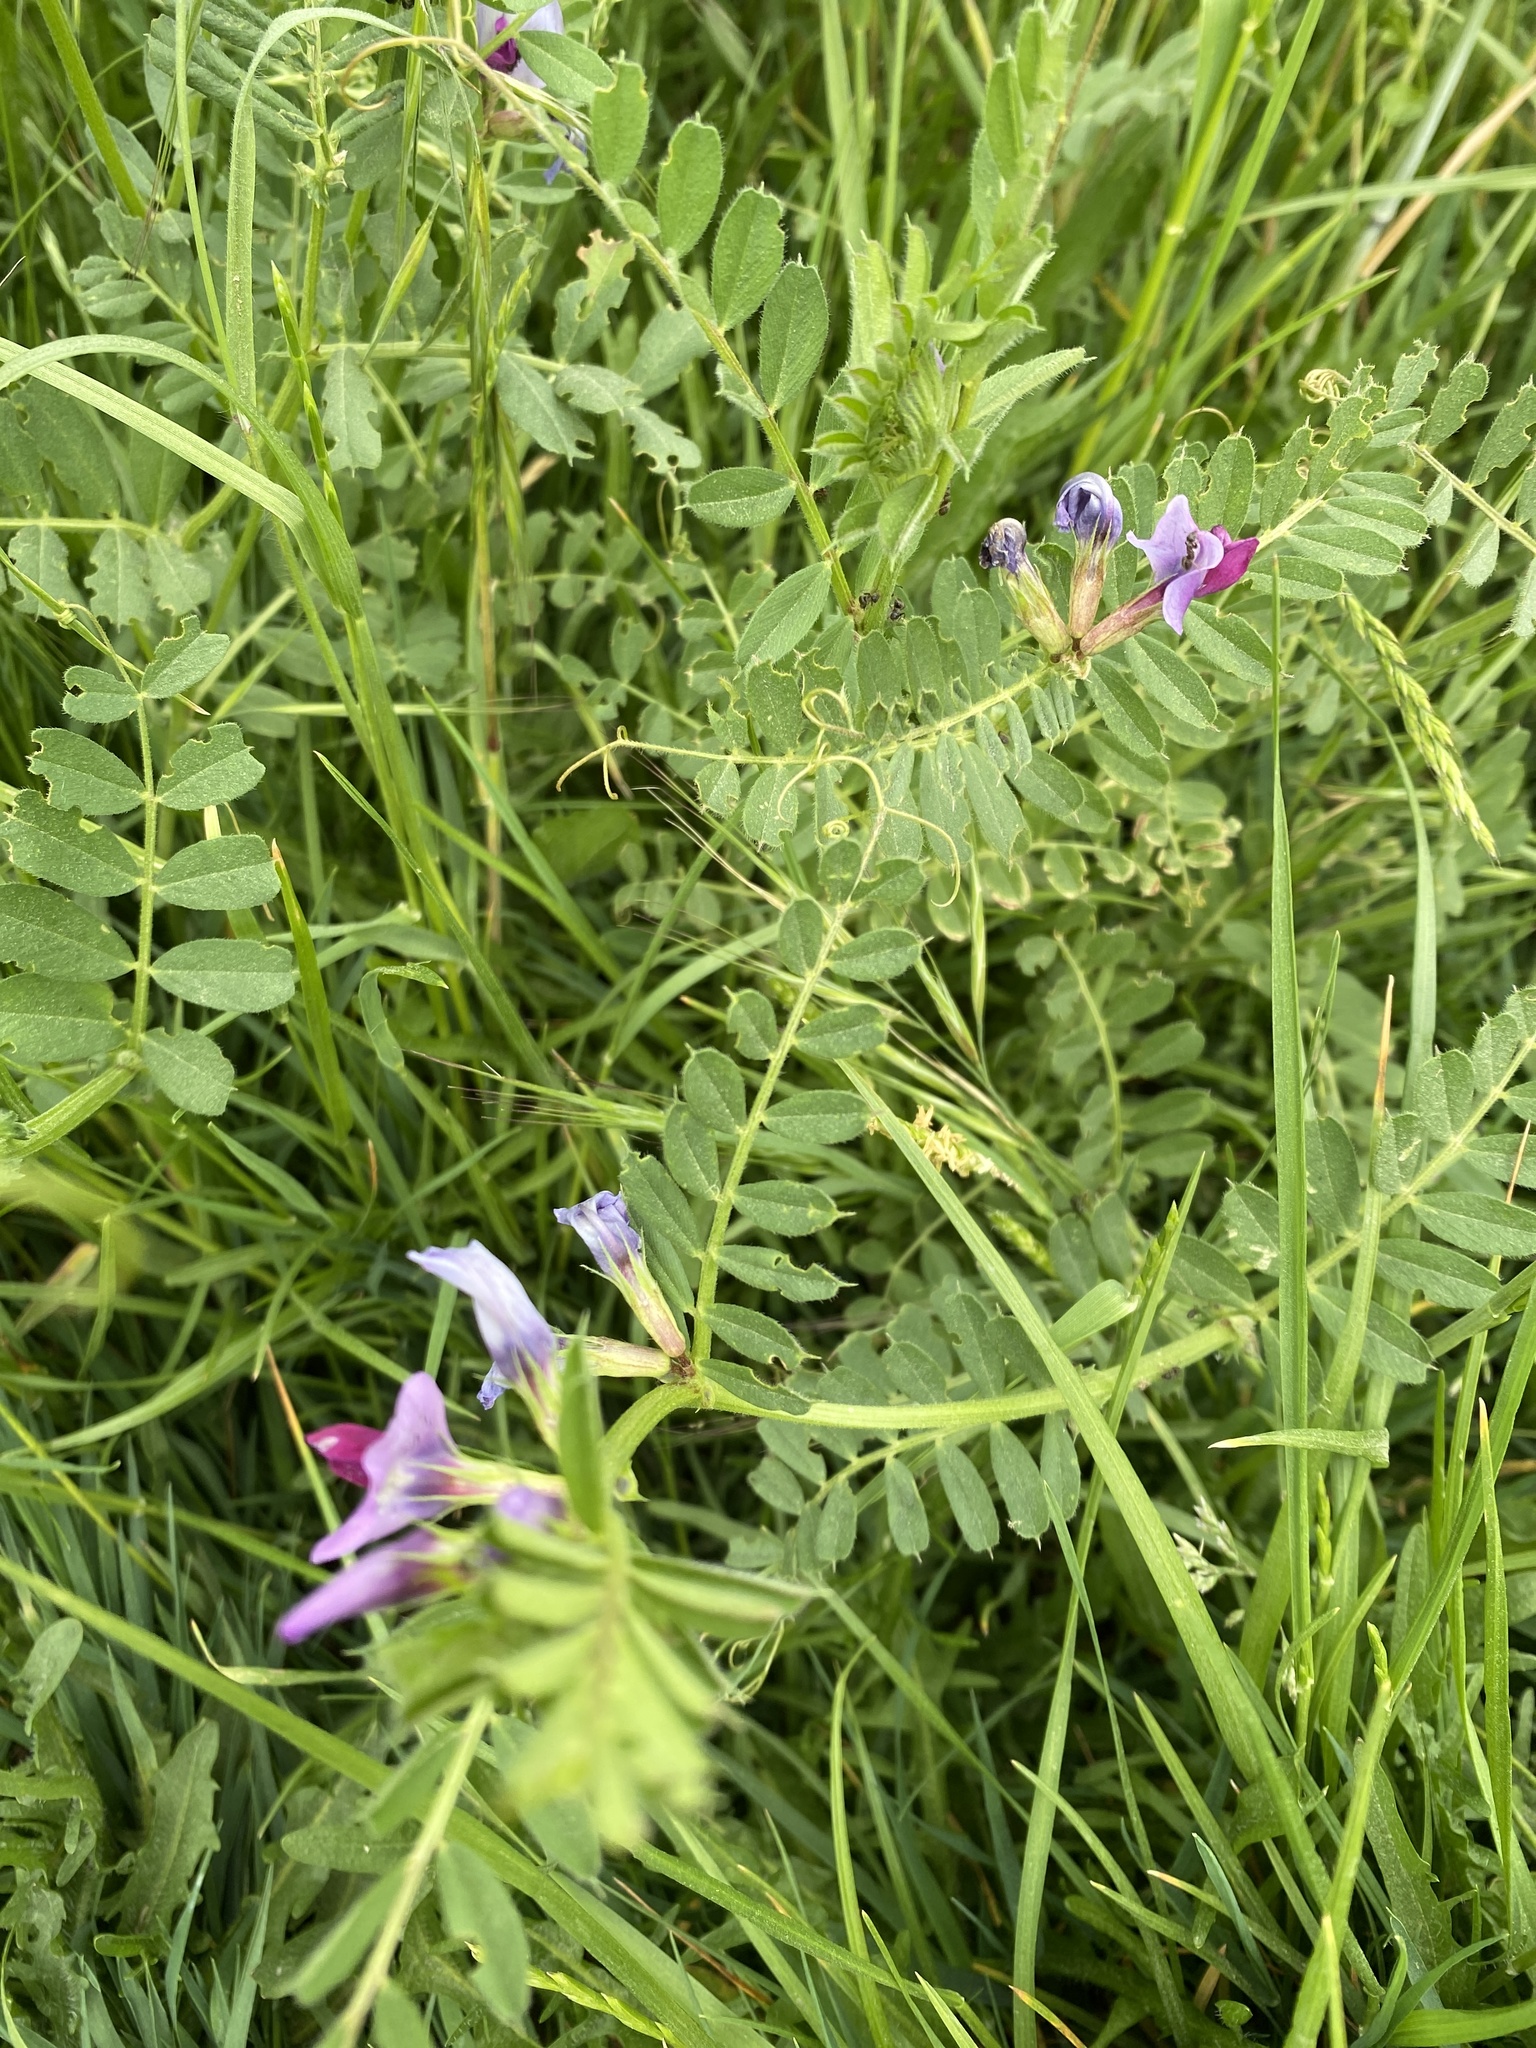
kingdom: Plantae
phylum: Tracheophyta
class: Magnoliopsida
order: Fabales
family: Fabaceae
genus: Vicia
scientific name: Vicia sativa
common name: Garden vetch
